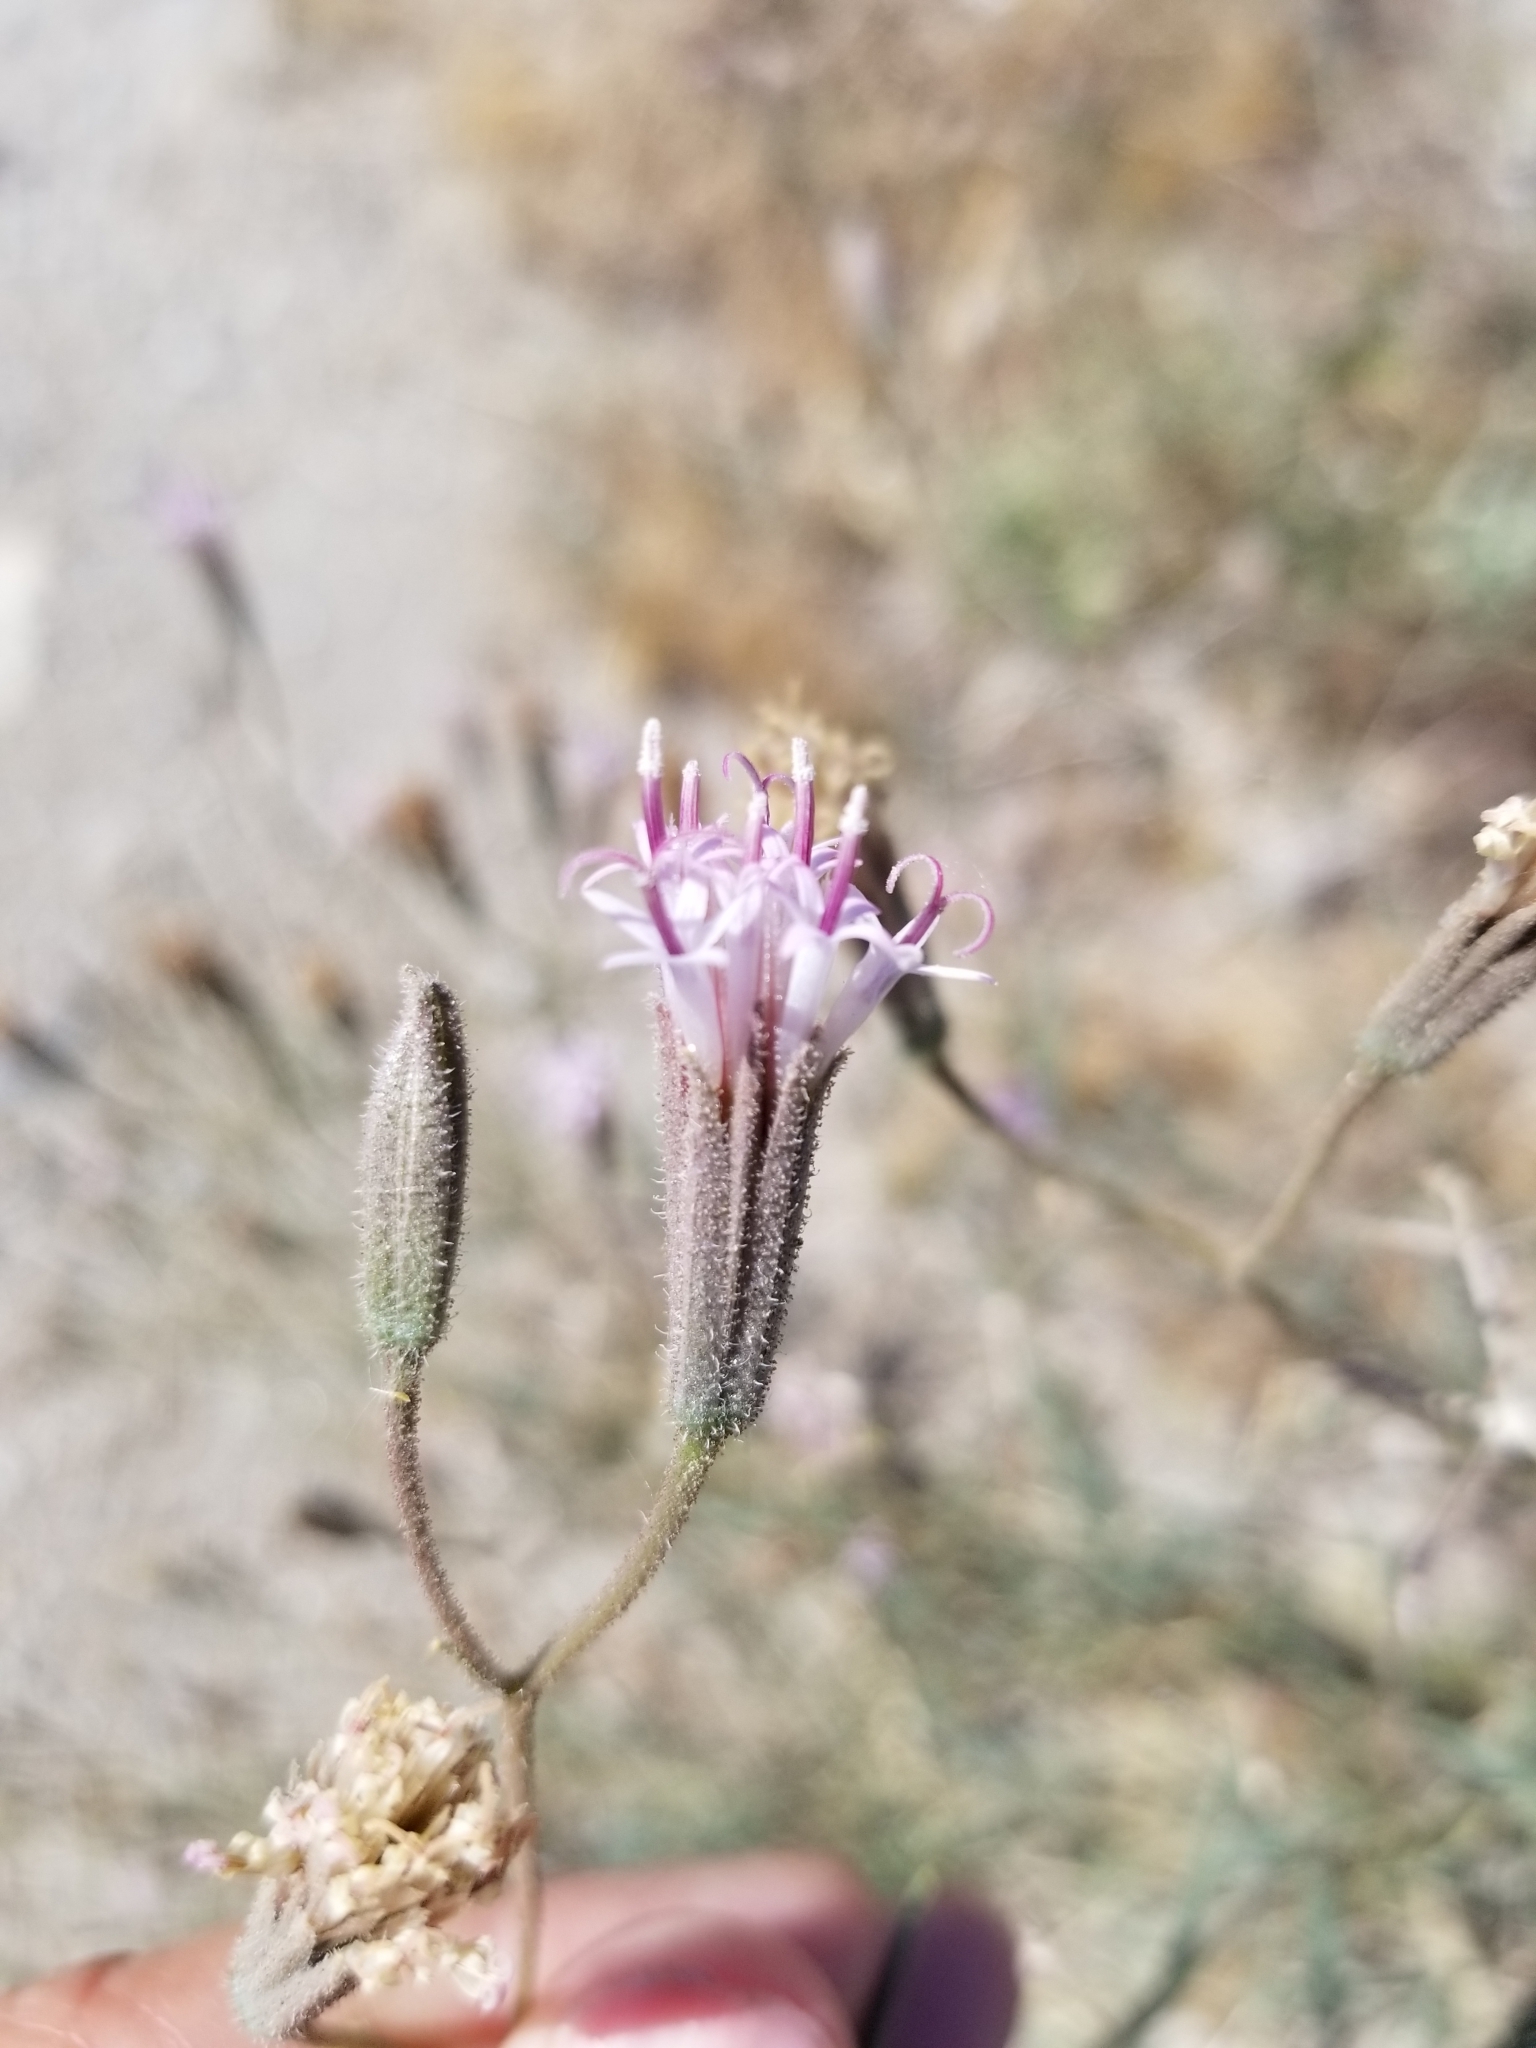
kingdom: Plantae
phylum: Tracheophyta
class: Magnoliopsida
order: Asterales
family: Asteraceae
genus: Palafoxia
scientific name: Palafoxia arida
